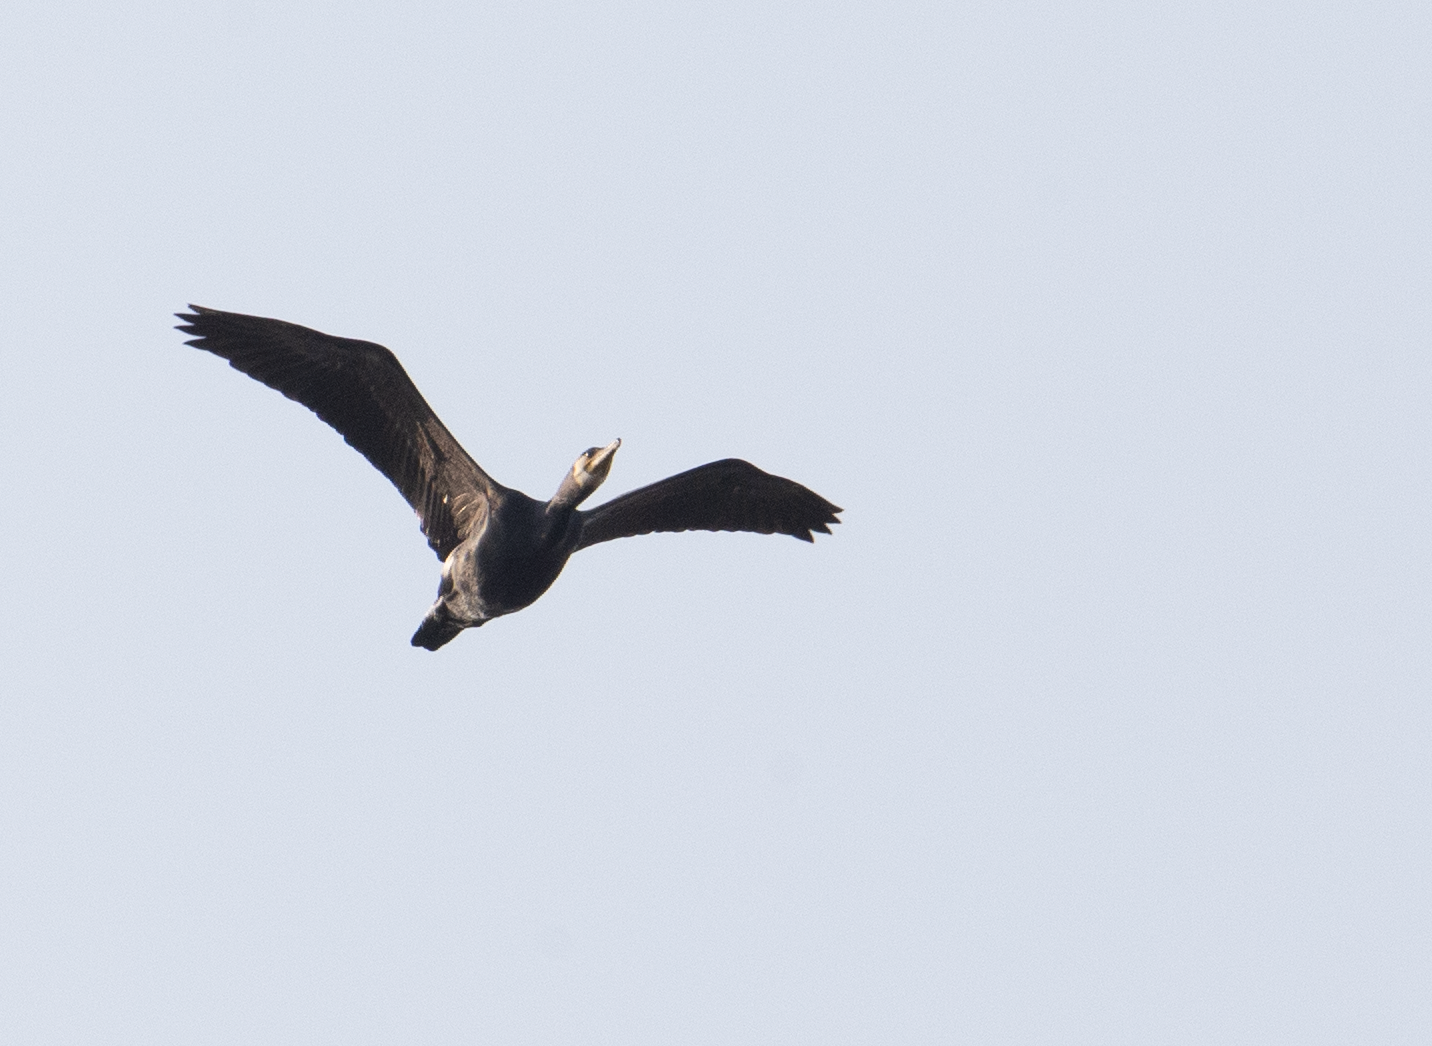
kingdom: Animalia
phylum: Chordata
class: Aves
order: Suliformes
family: Phalacrocoracidae
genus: Phalacrocorax
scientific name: Phalacrocorax carbo
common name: Great cormorant
